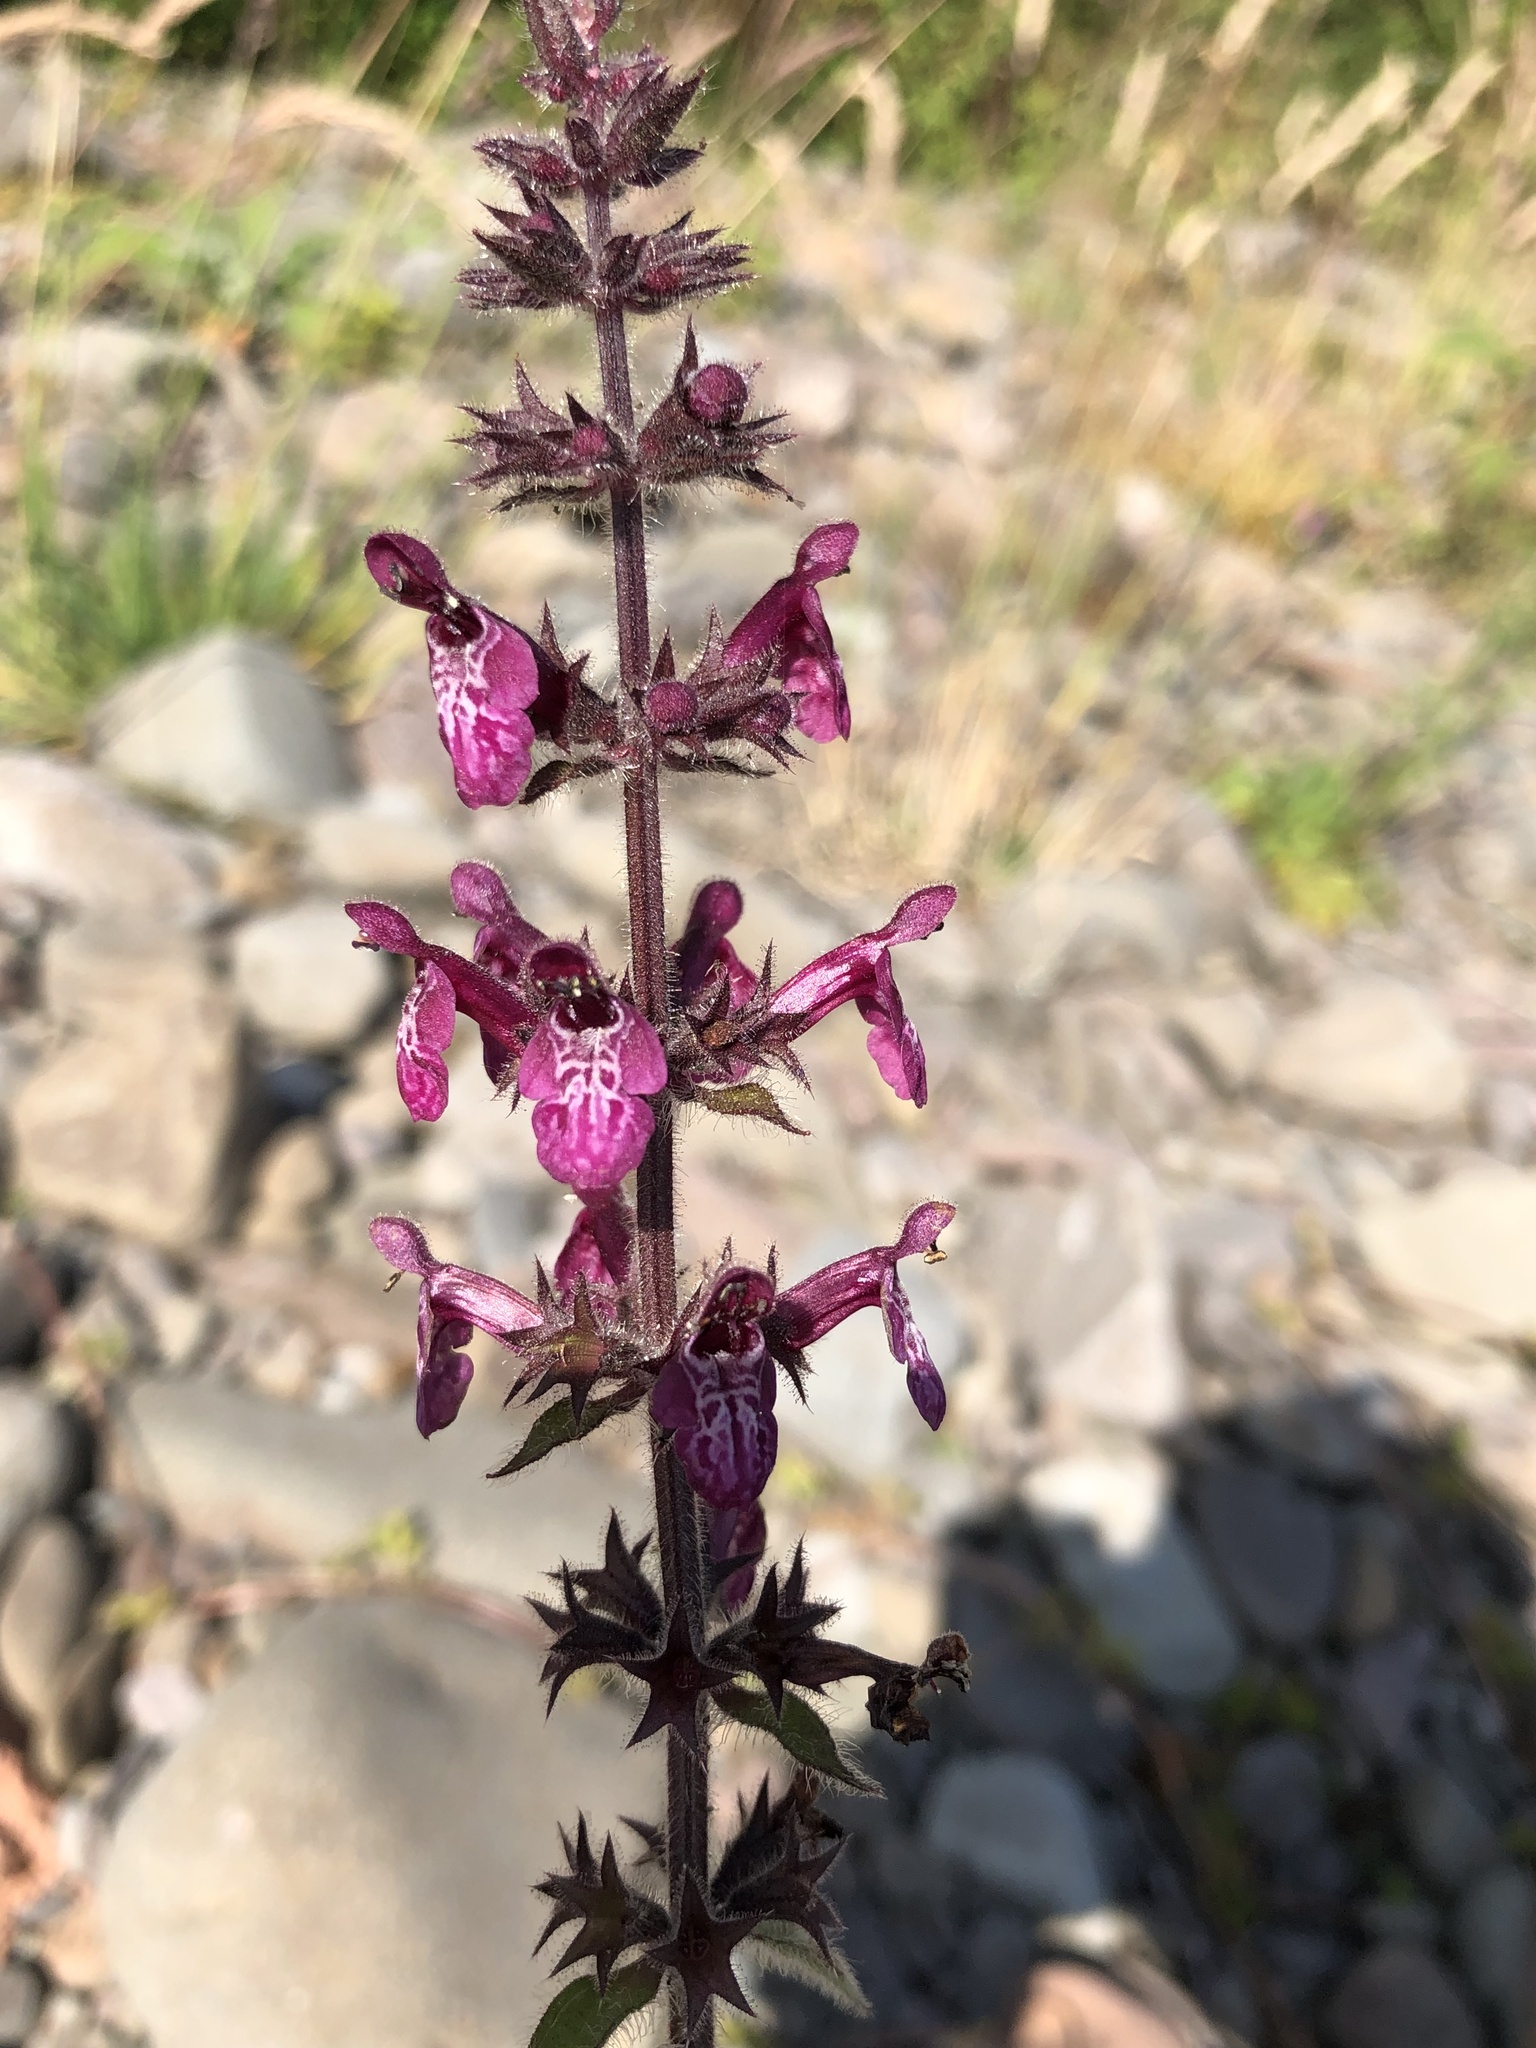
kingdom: Plantae
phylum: Tracheophyta
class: Magnoliopsida
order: Lamiales
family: Lamiaceae
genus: Stachys
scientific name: Stachys sylvatica
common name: Hedge woundwort
